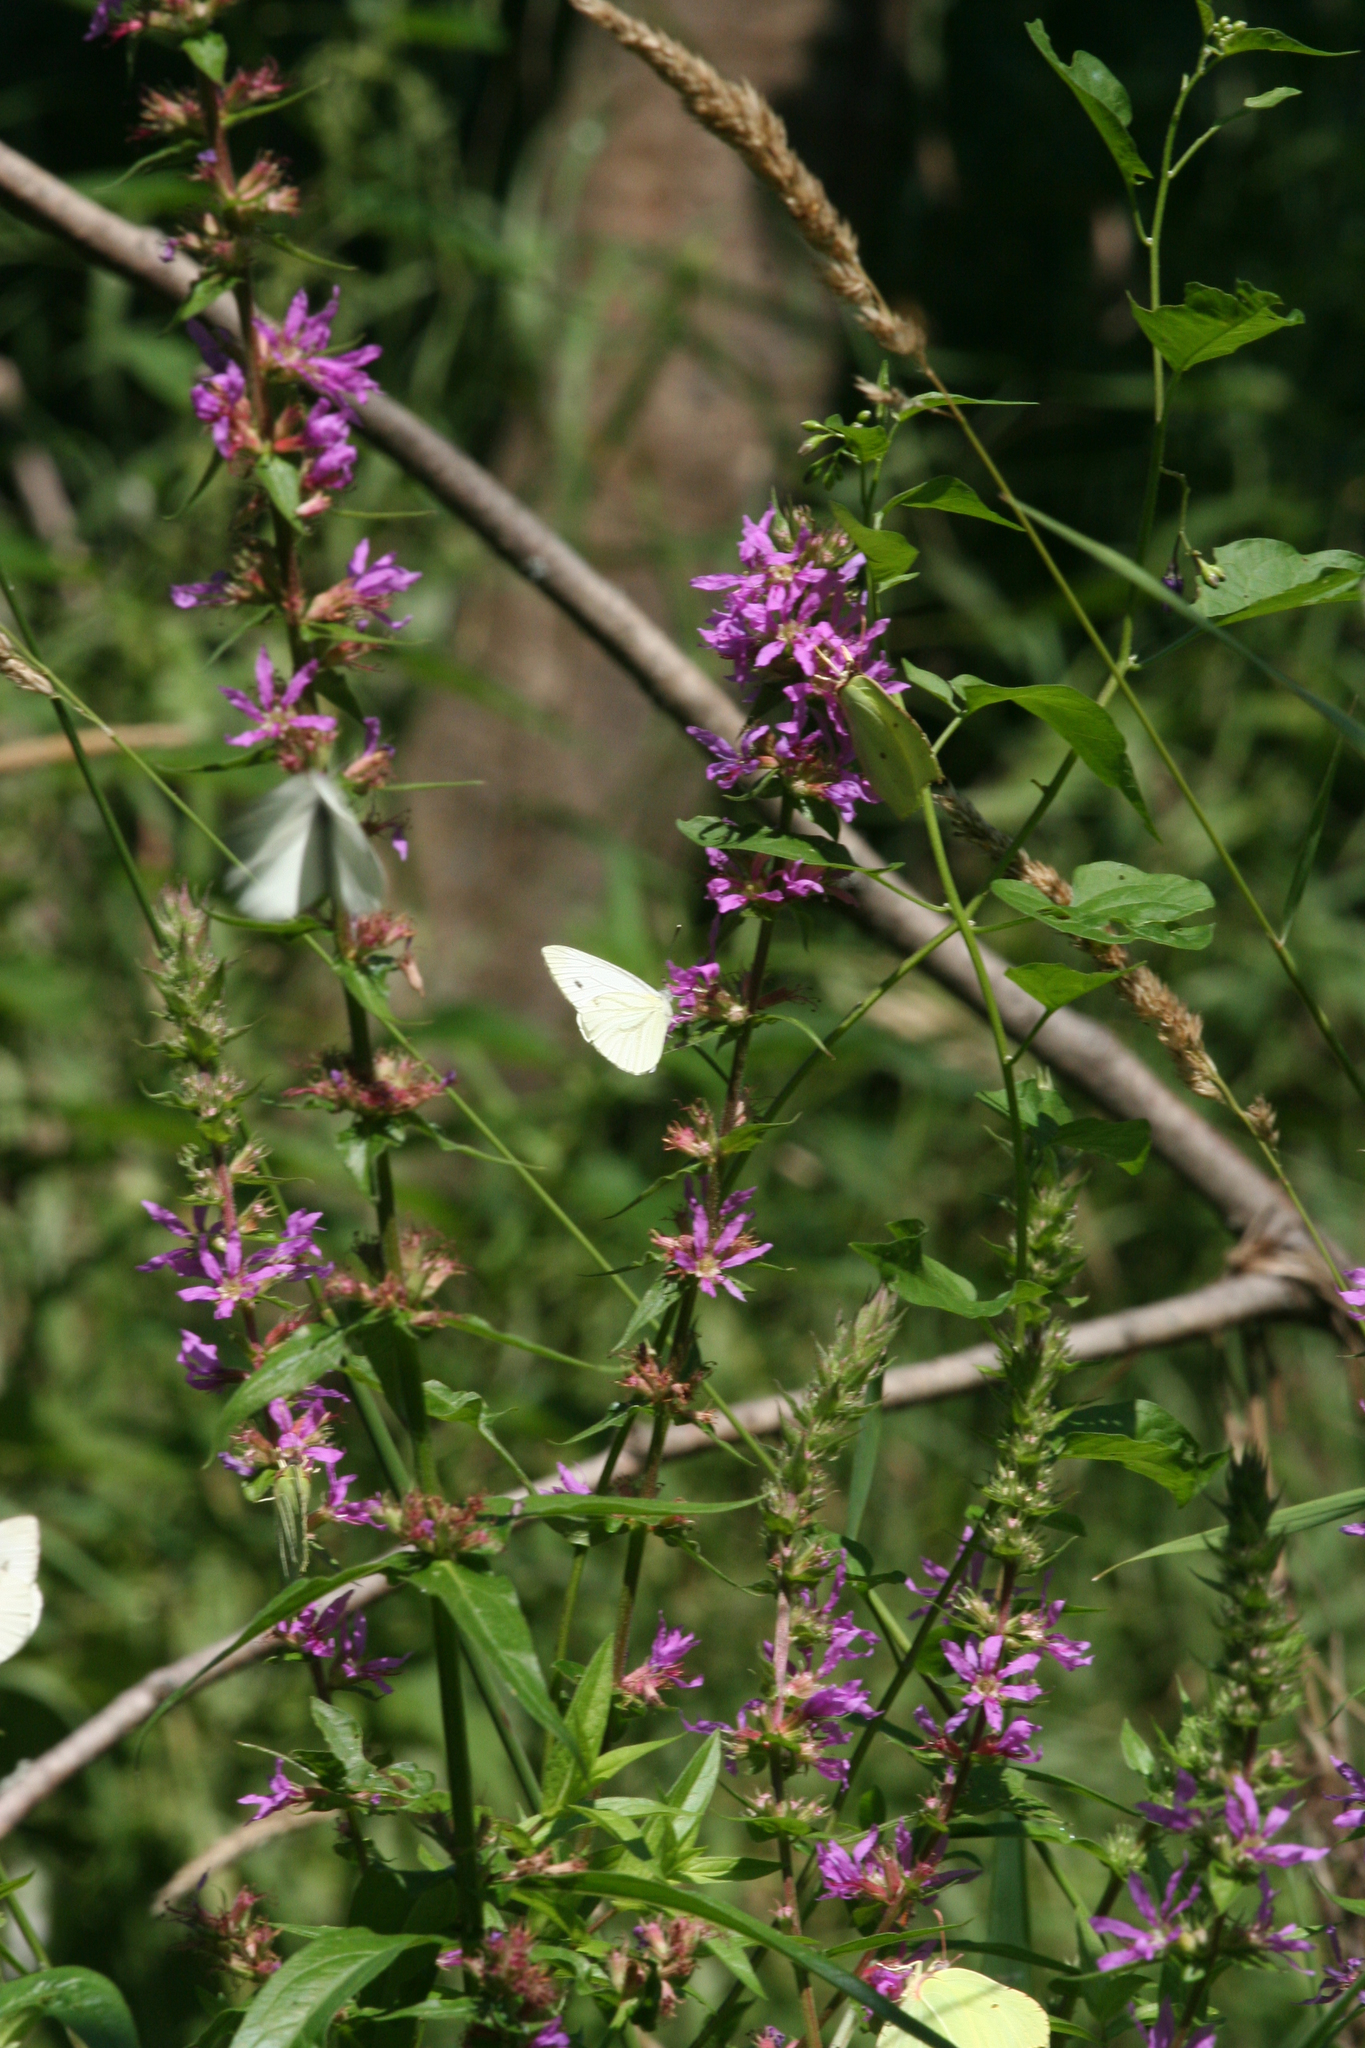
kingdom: Animalia
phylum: Arthropoda
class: Insecta
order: Lepidoptera
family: Pieridae
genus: Pieris
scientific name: Pieris napi
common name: Green-veined white
